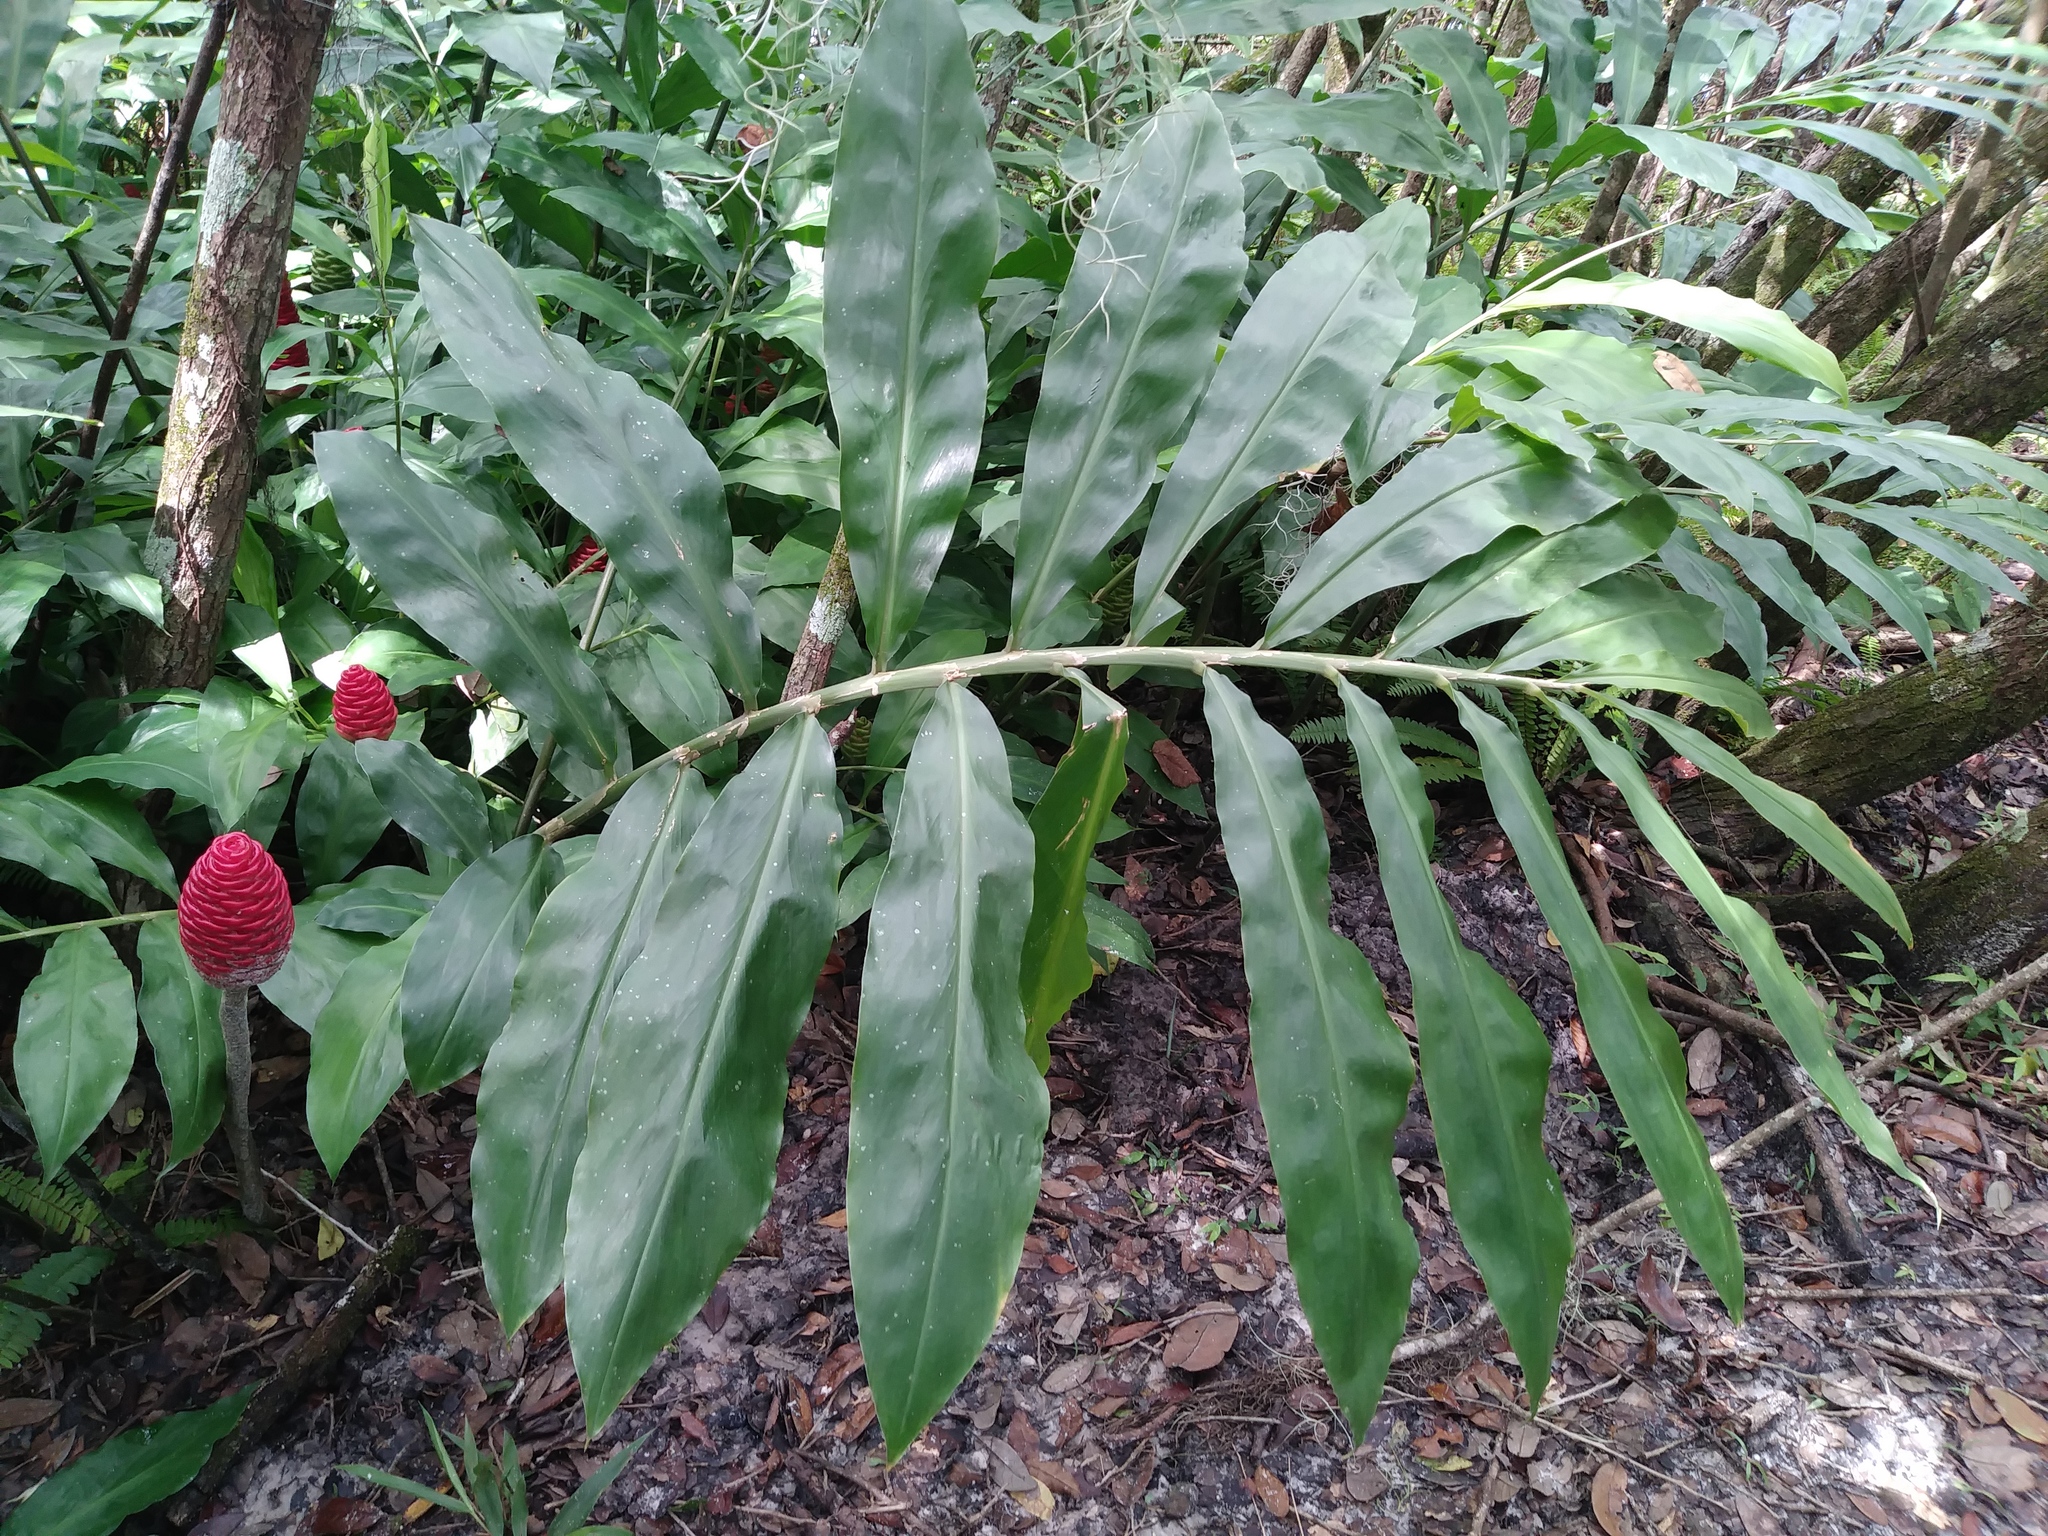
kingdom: Plantae
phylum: Tracheophyta
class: Liliopsida
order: Zingiberales
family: Zingiberaceae
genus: Zingiber
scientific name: Zingiber zerumbet
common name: Bitter ginger
